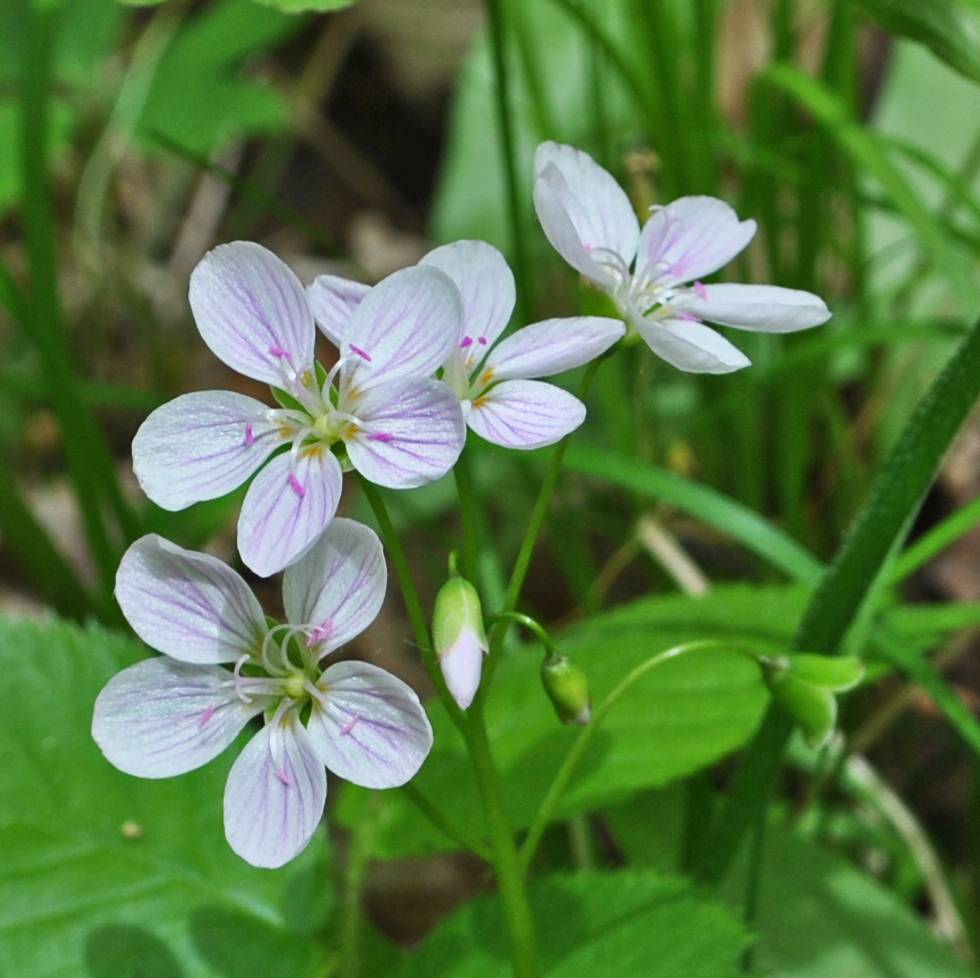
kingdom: Plantae
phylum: Tracheophyta
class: Magnoliopsida
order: Caryophyllales
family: Montiaceae
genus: Claytonia
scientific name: Claytonia virginica
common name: Virginia springbeauty
